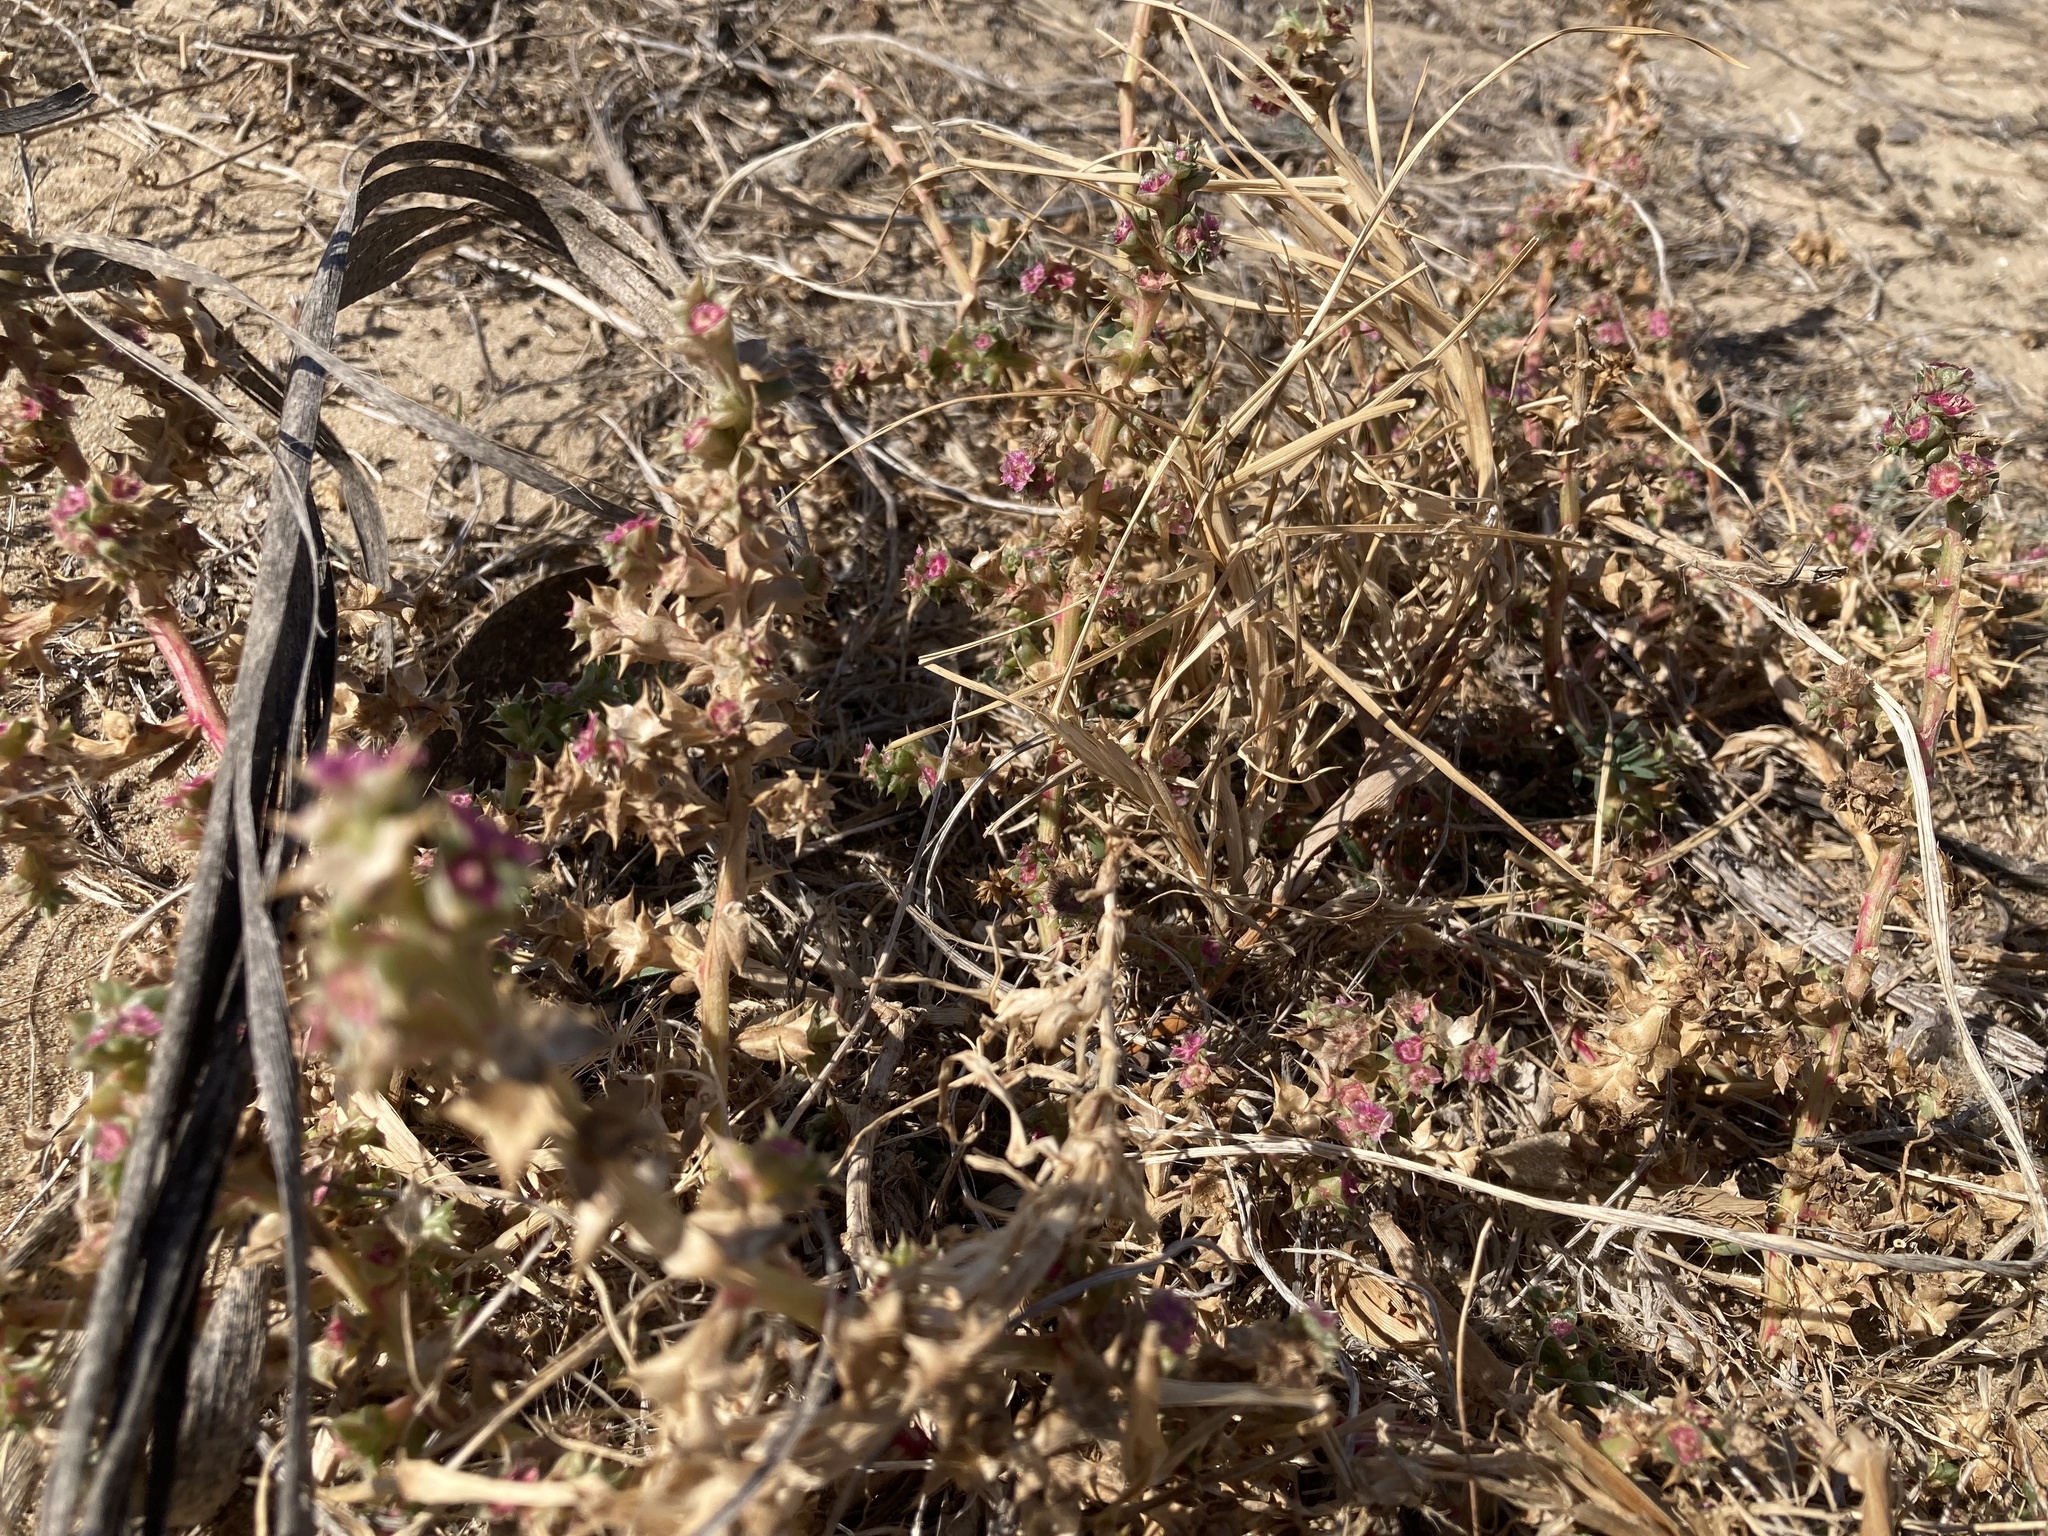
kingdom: Plantae
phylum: Tracheophyta
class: Magnoliopsida
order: Caryophyllales
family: Amaranthaceae
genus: Salsola
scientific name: Salsola kali
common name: Saltwort
